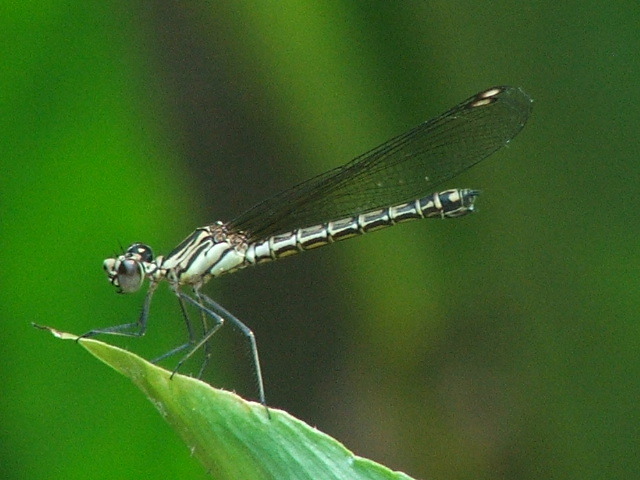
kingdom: Animalia
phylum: Arthropoda
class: Insecta
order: Odonata
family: Chlorocyphidae
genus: Platycypha
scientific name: Platycypha caligata
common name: Dancing jewel
